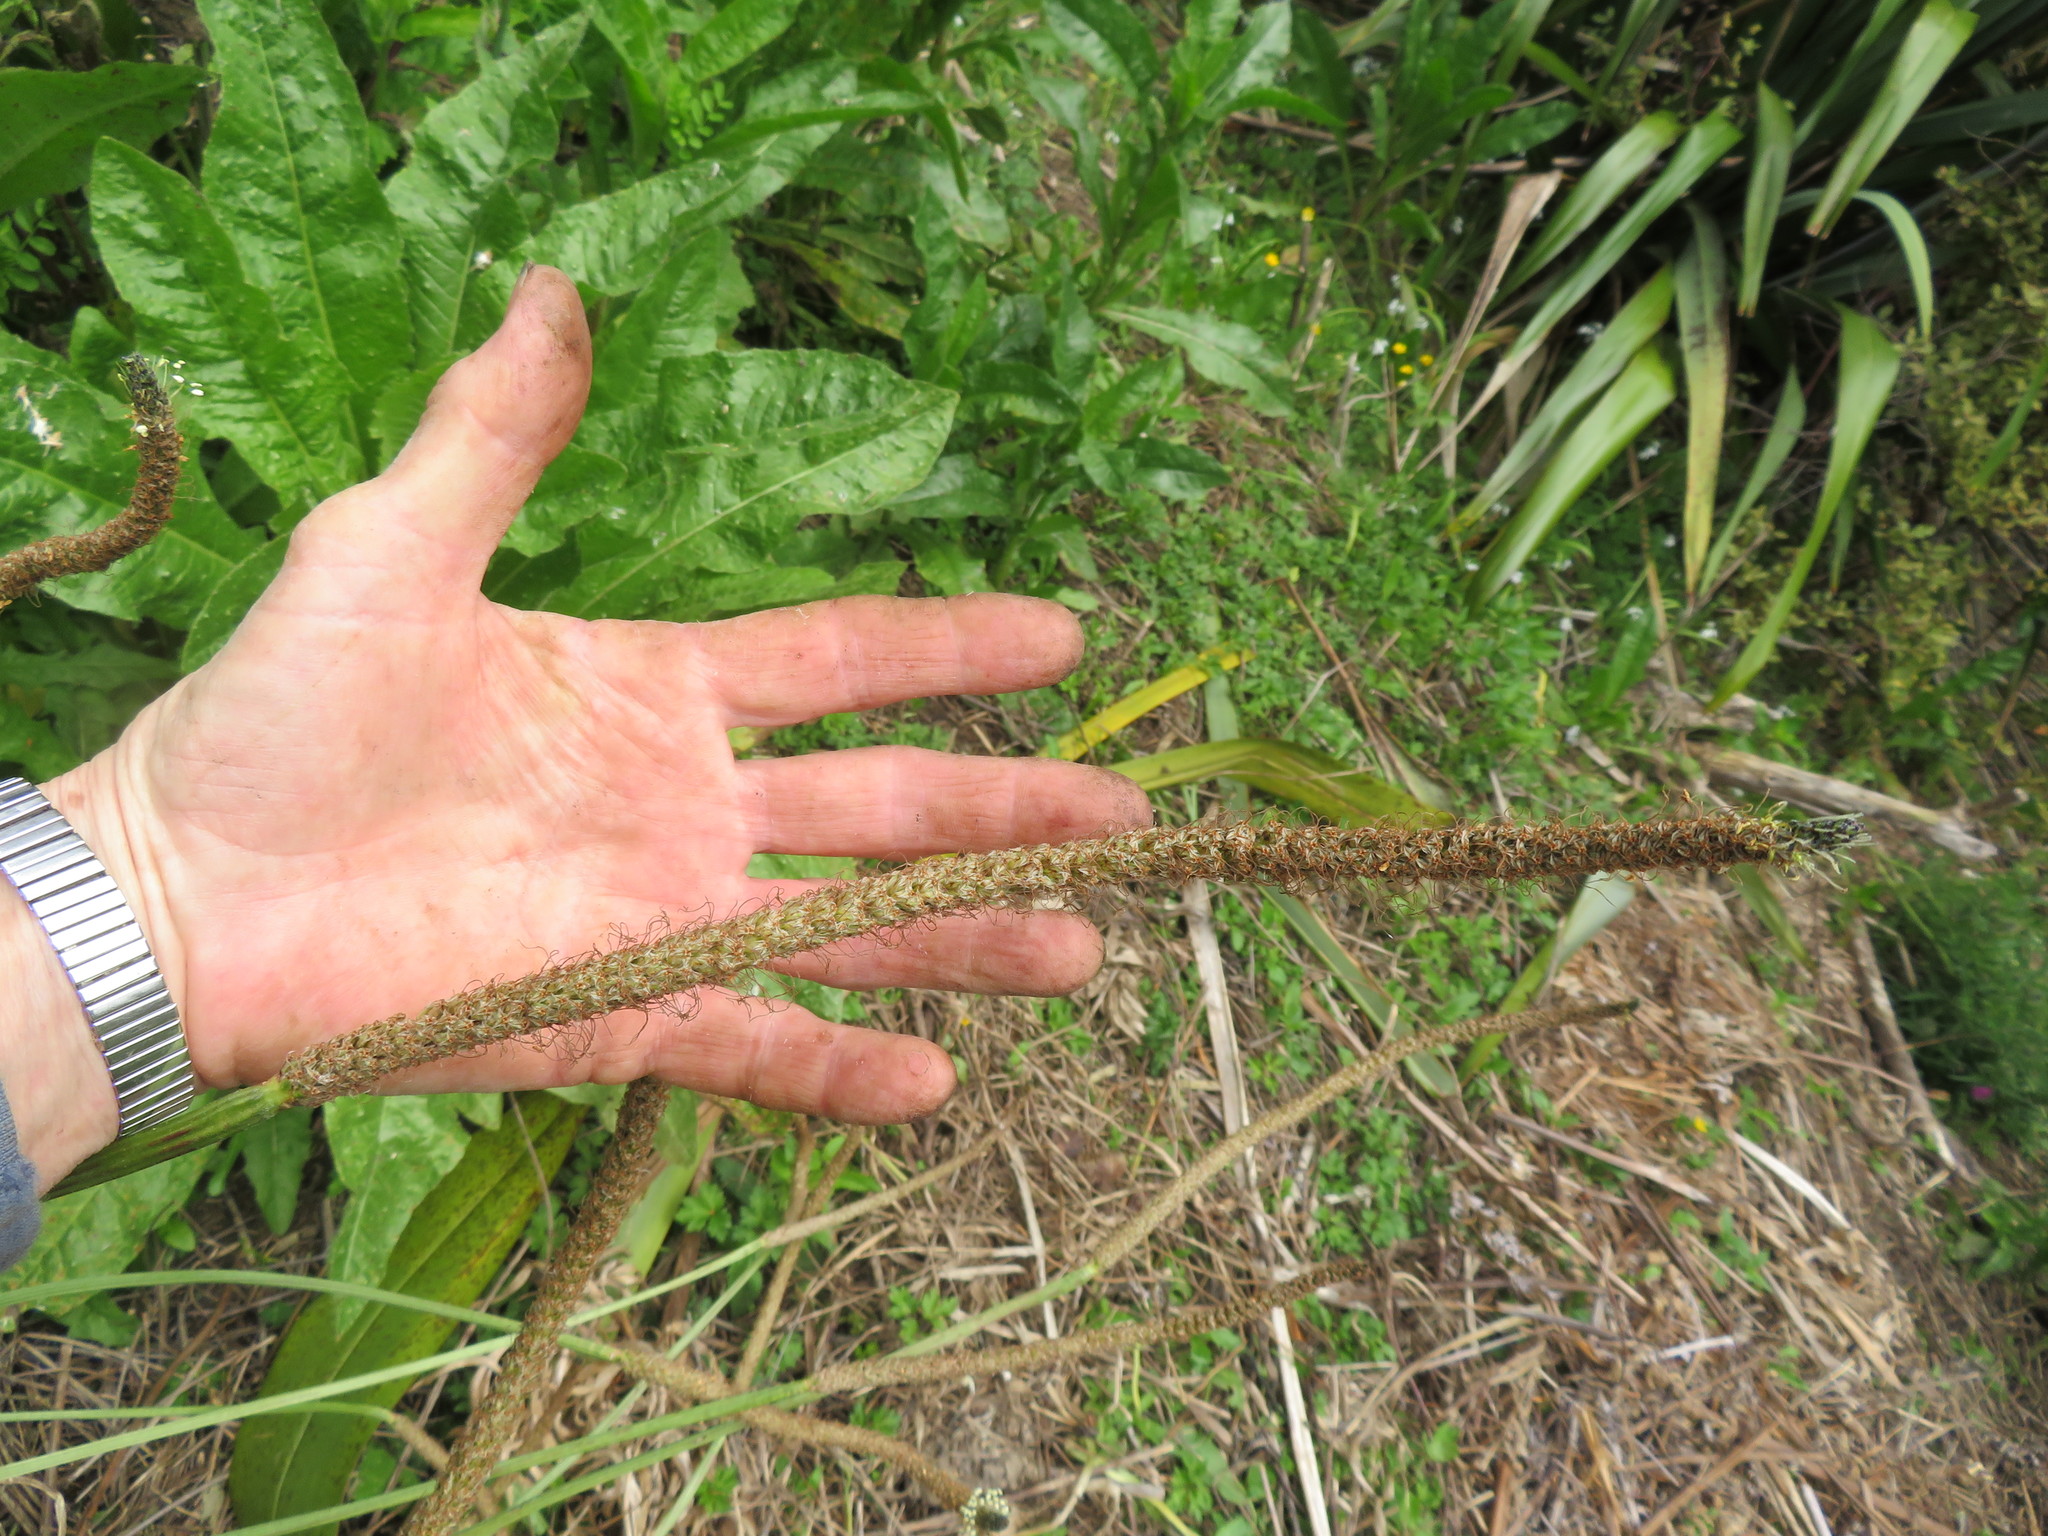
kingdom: Plantae
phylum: Tracheophyta
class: Magnoliopsida
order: Lamiales
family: Plantaginaceae
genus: Plantago
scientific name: Plantago australis
